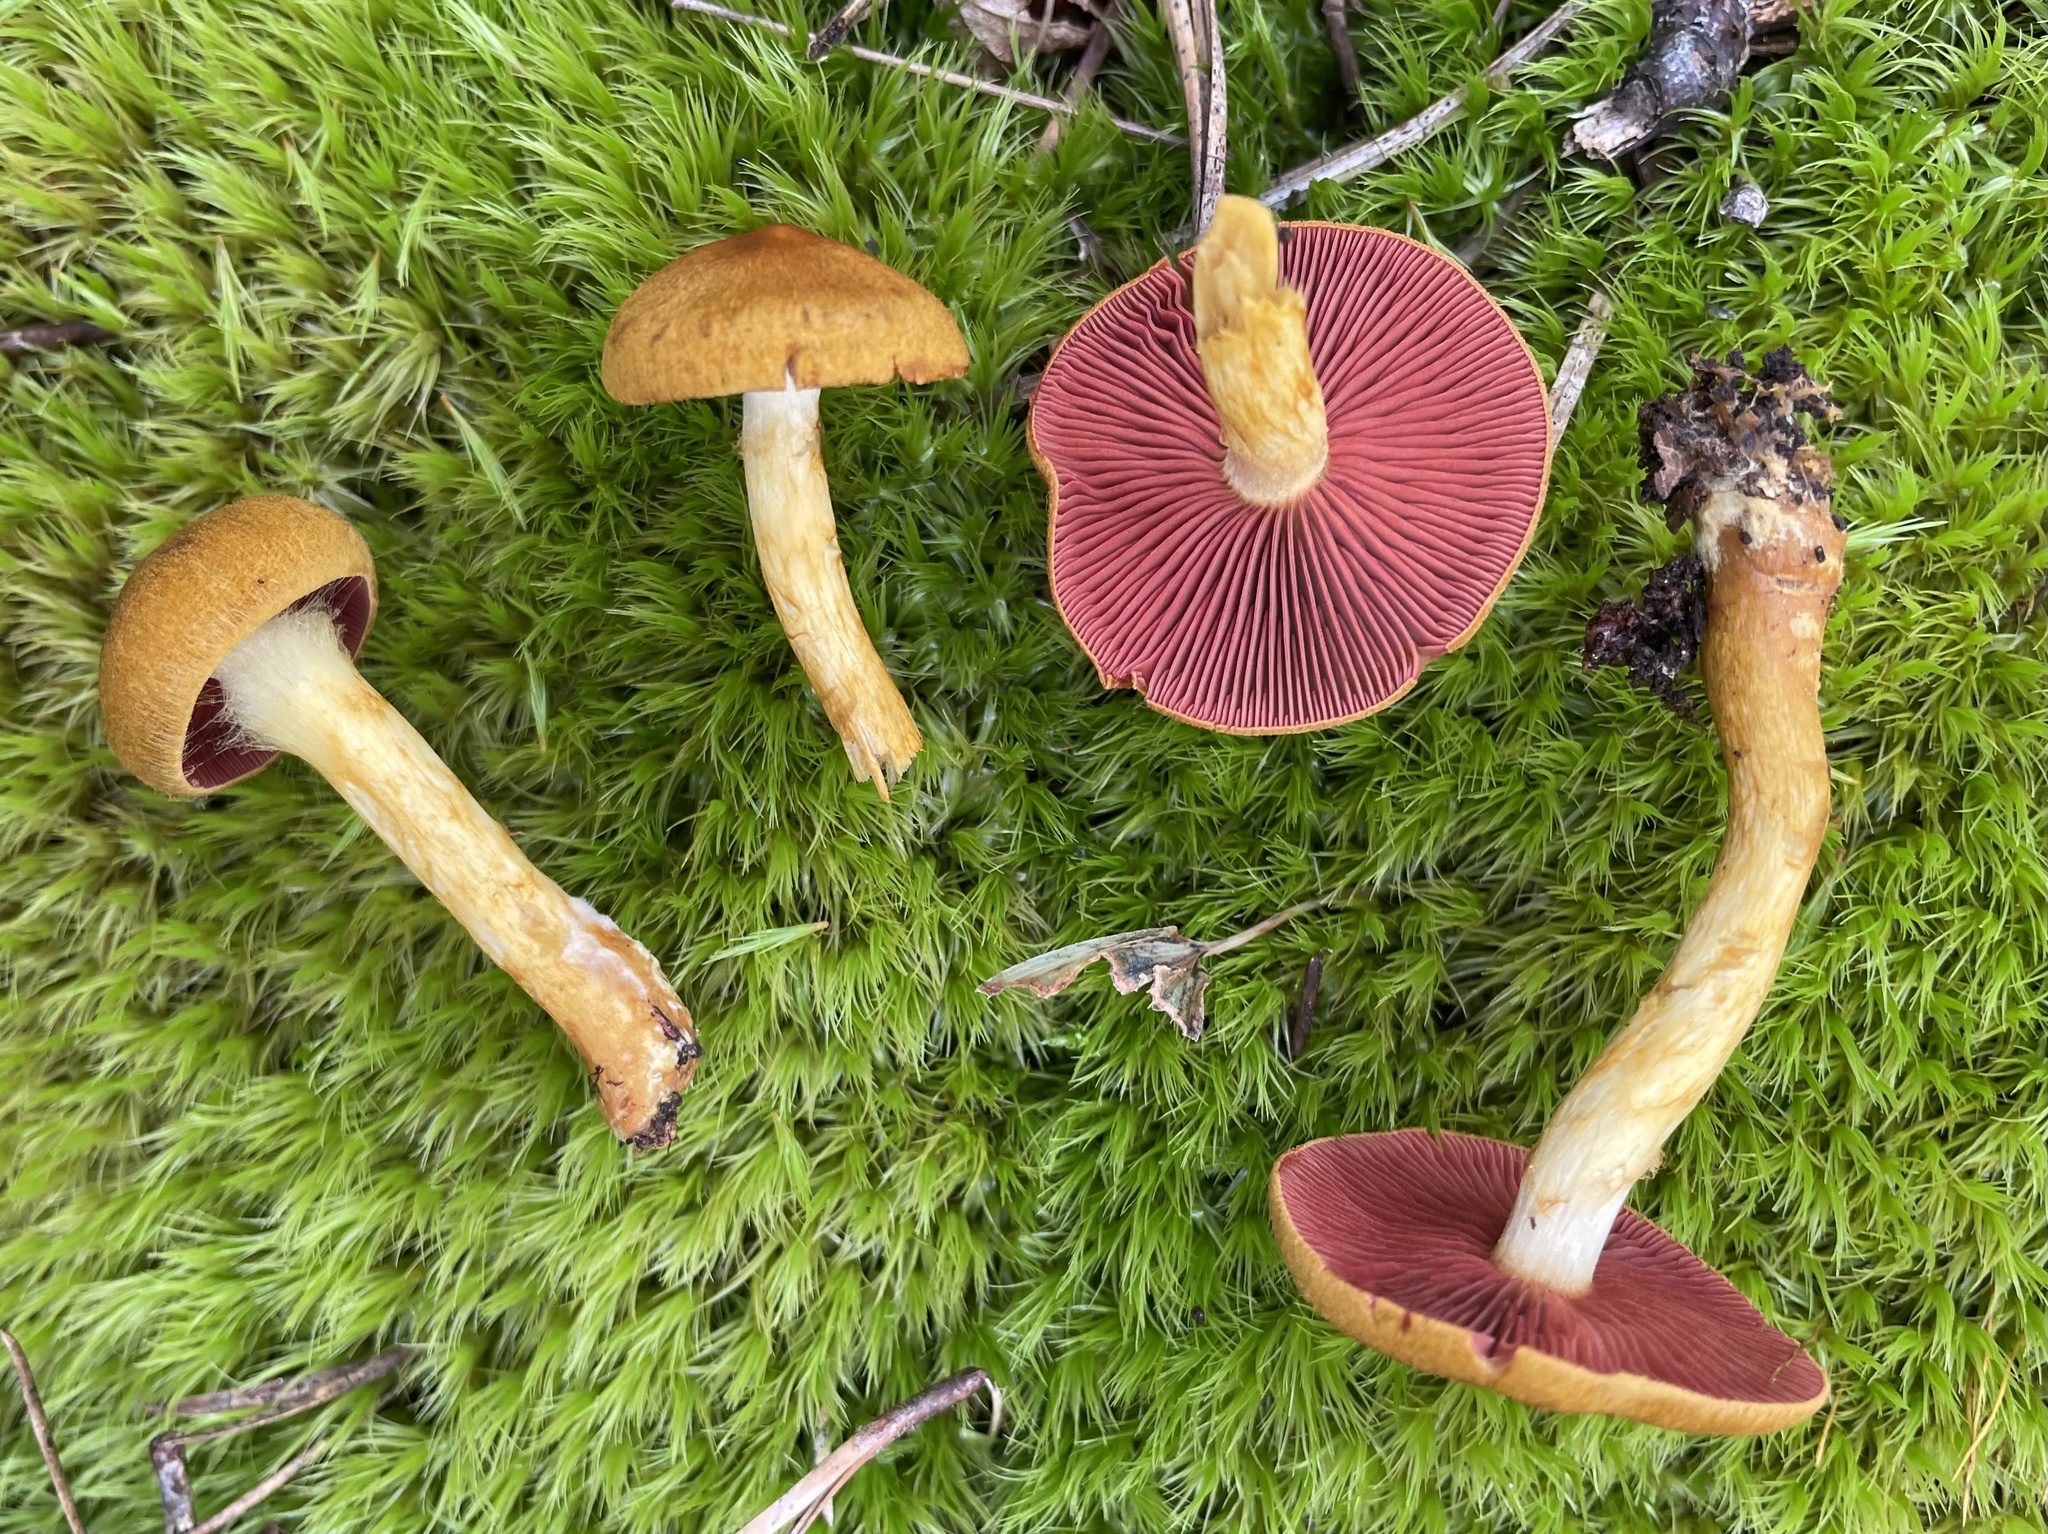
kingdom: Fungi
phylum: Basidiomycota
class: Agaricomycetes
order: Agaricales
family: Cortinariaceae
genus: Cortinarius
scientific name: Cortinarius semisanguineus
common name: Surprise webcap
